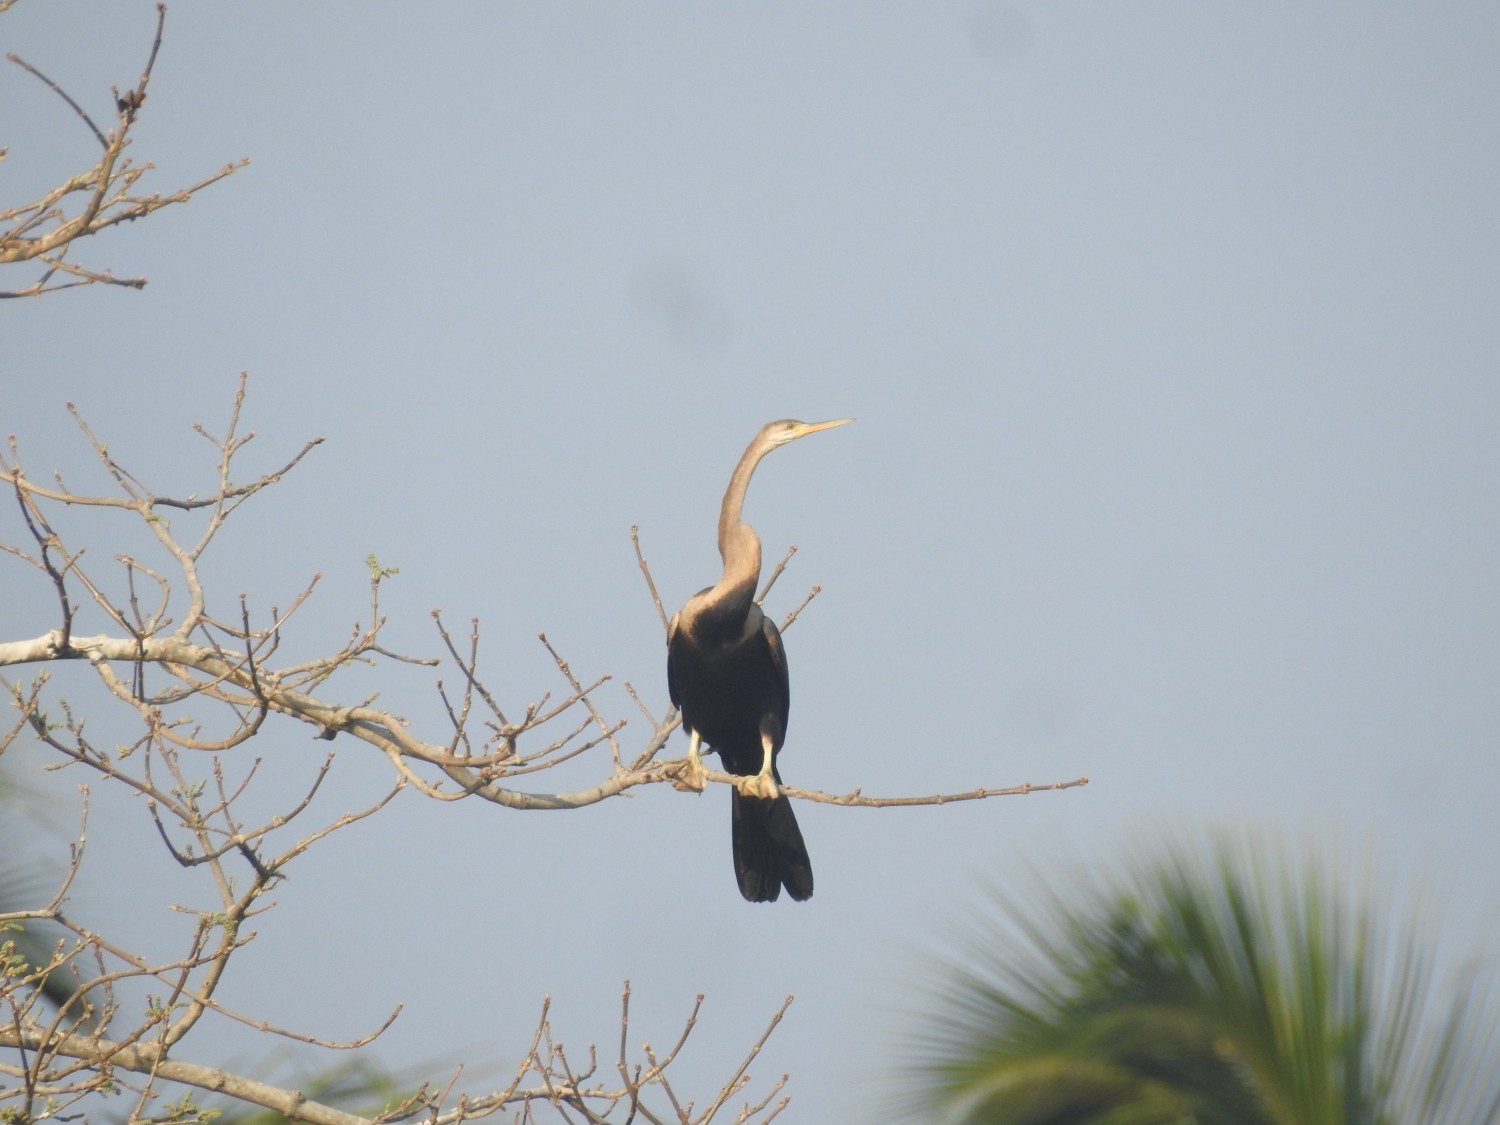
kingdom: Animalia
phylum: Chordata
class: Aves
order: Suliformes
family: Anhingidae
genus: Anhinga
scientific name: Anhinga melanogaster
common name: Oriental darter
